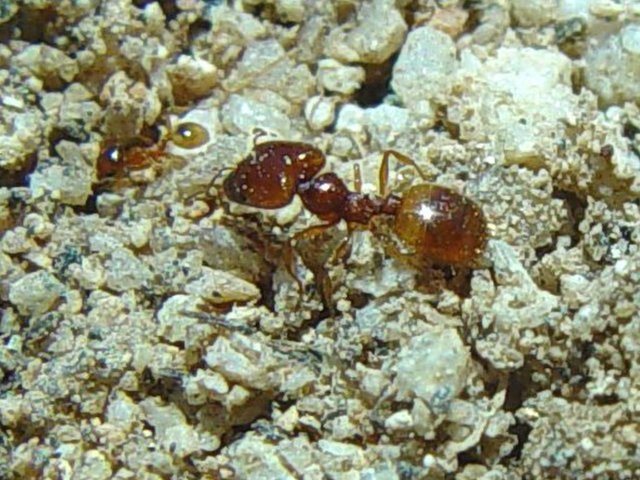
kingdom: Animalia
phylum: Arthropoda
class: Insecta
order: Hymenoptera
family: Formicidae
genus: Pheidole
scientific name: Pheidole gilvescens
